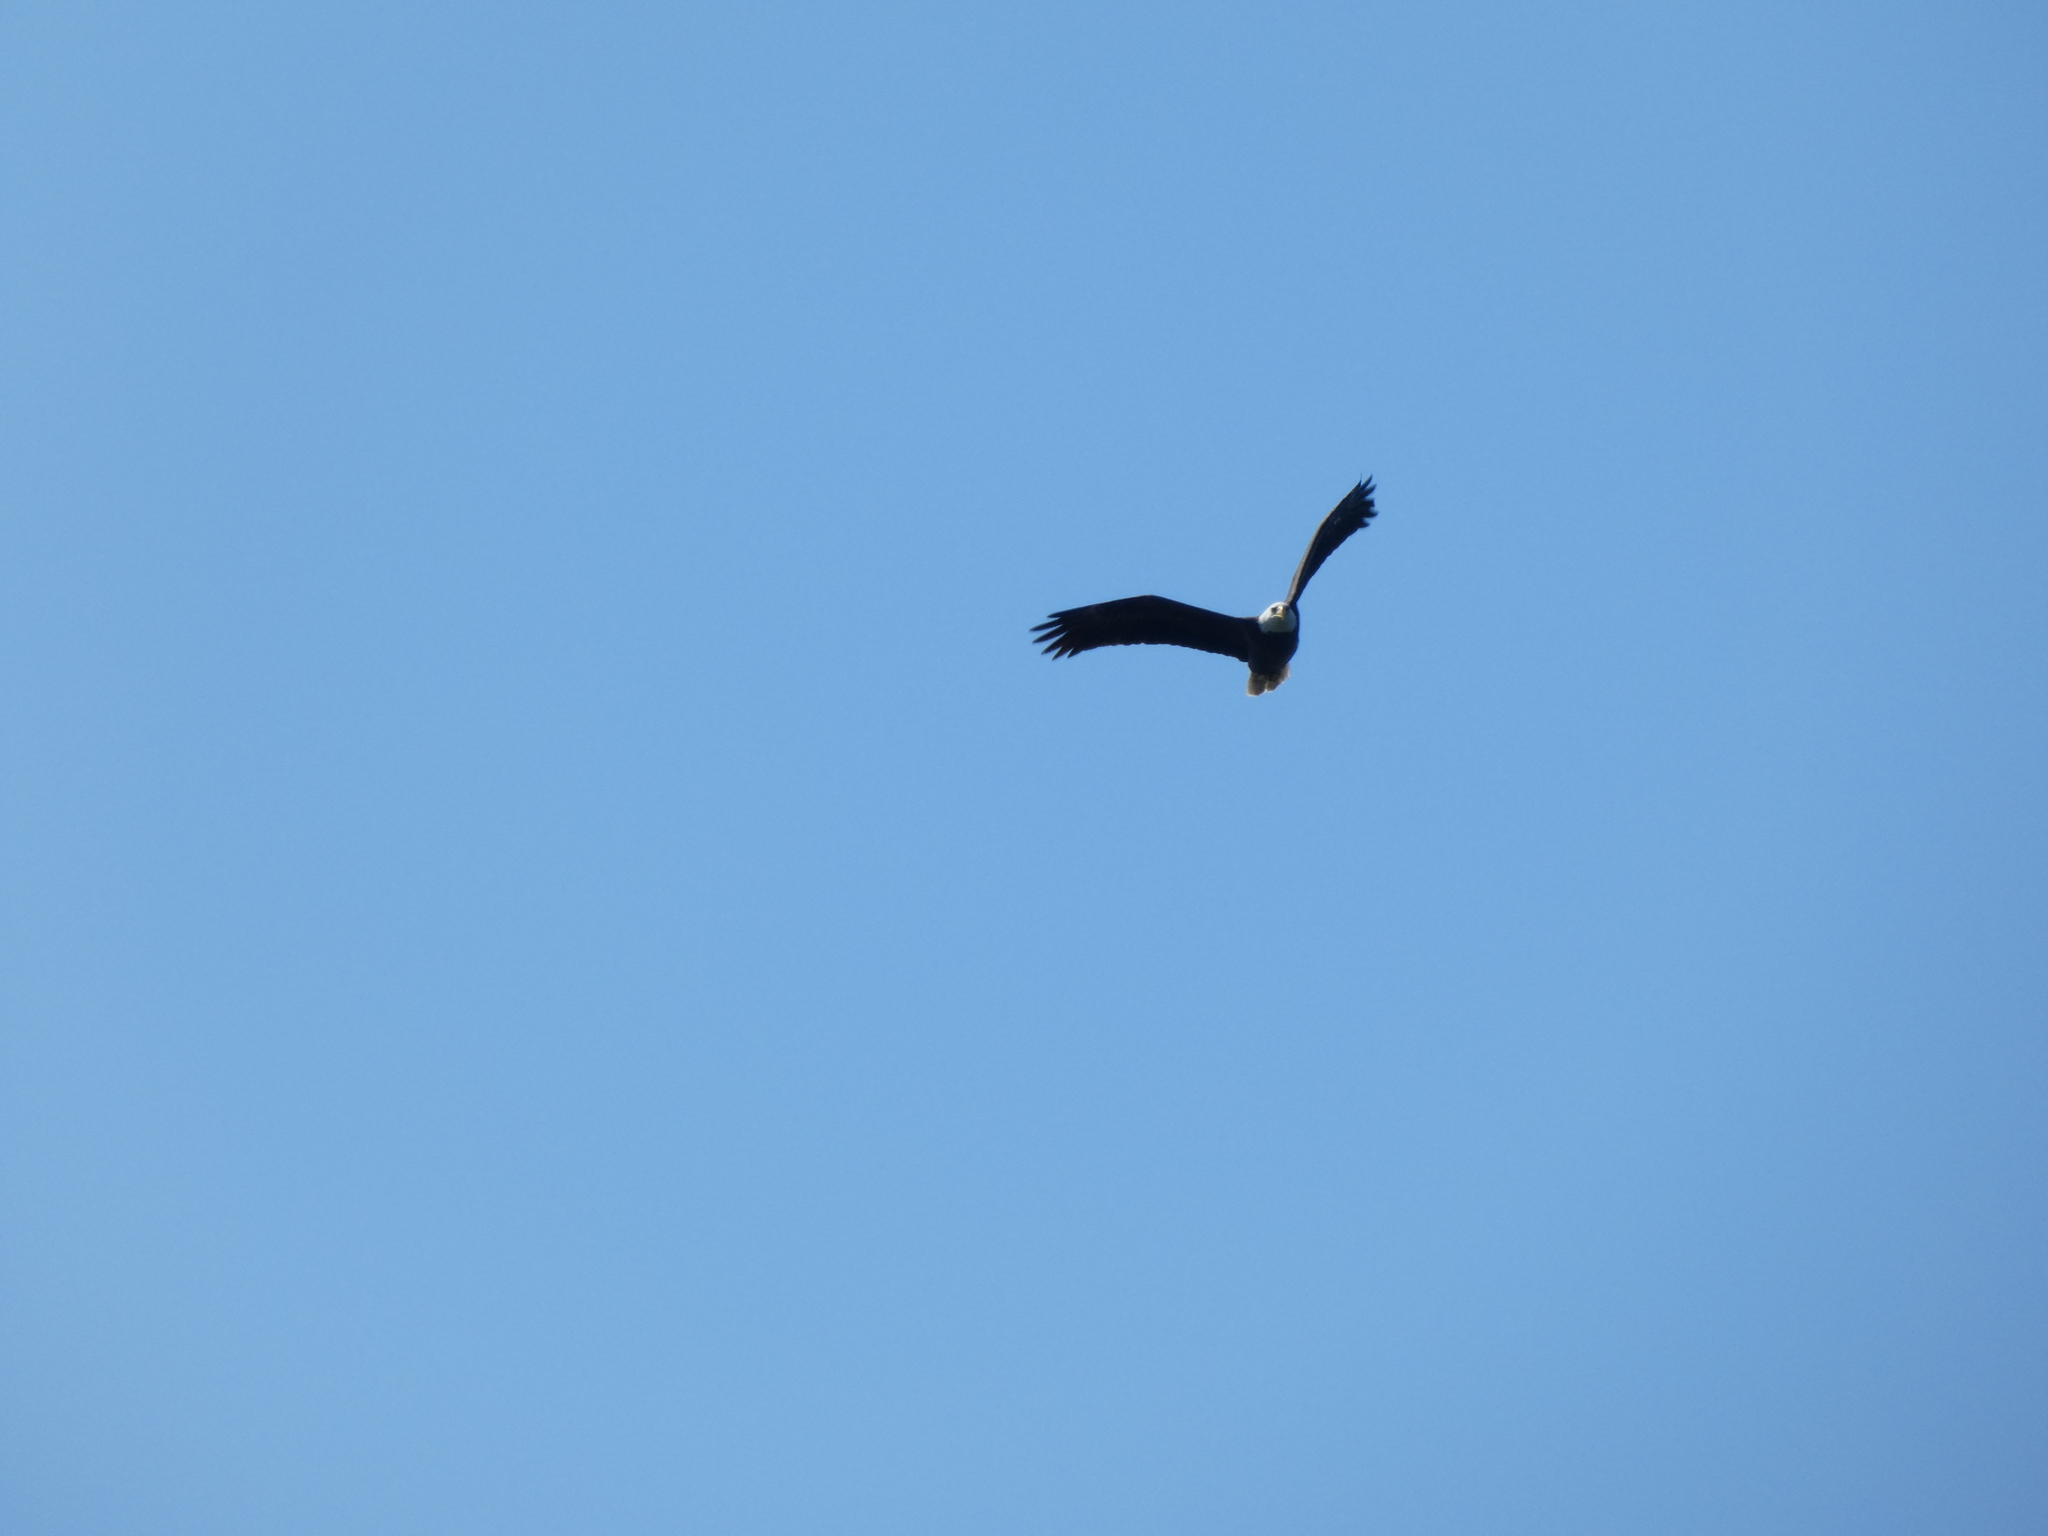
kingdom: Animalia
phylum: Chordata
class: Aves
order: Accipitriformes
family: Accipitridae
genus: Haliaeetus
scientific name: Haliaeetus leucocephalus
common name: Bald eagle
